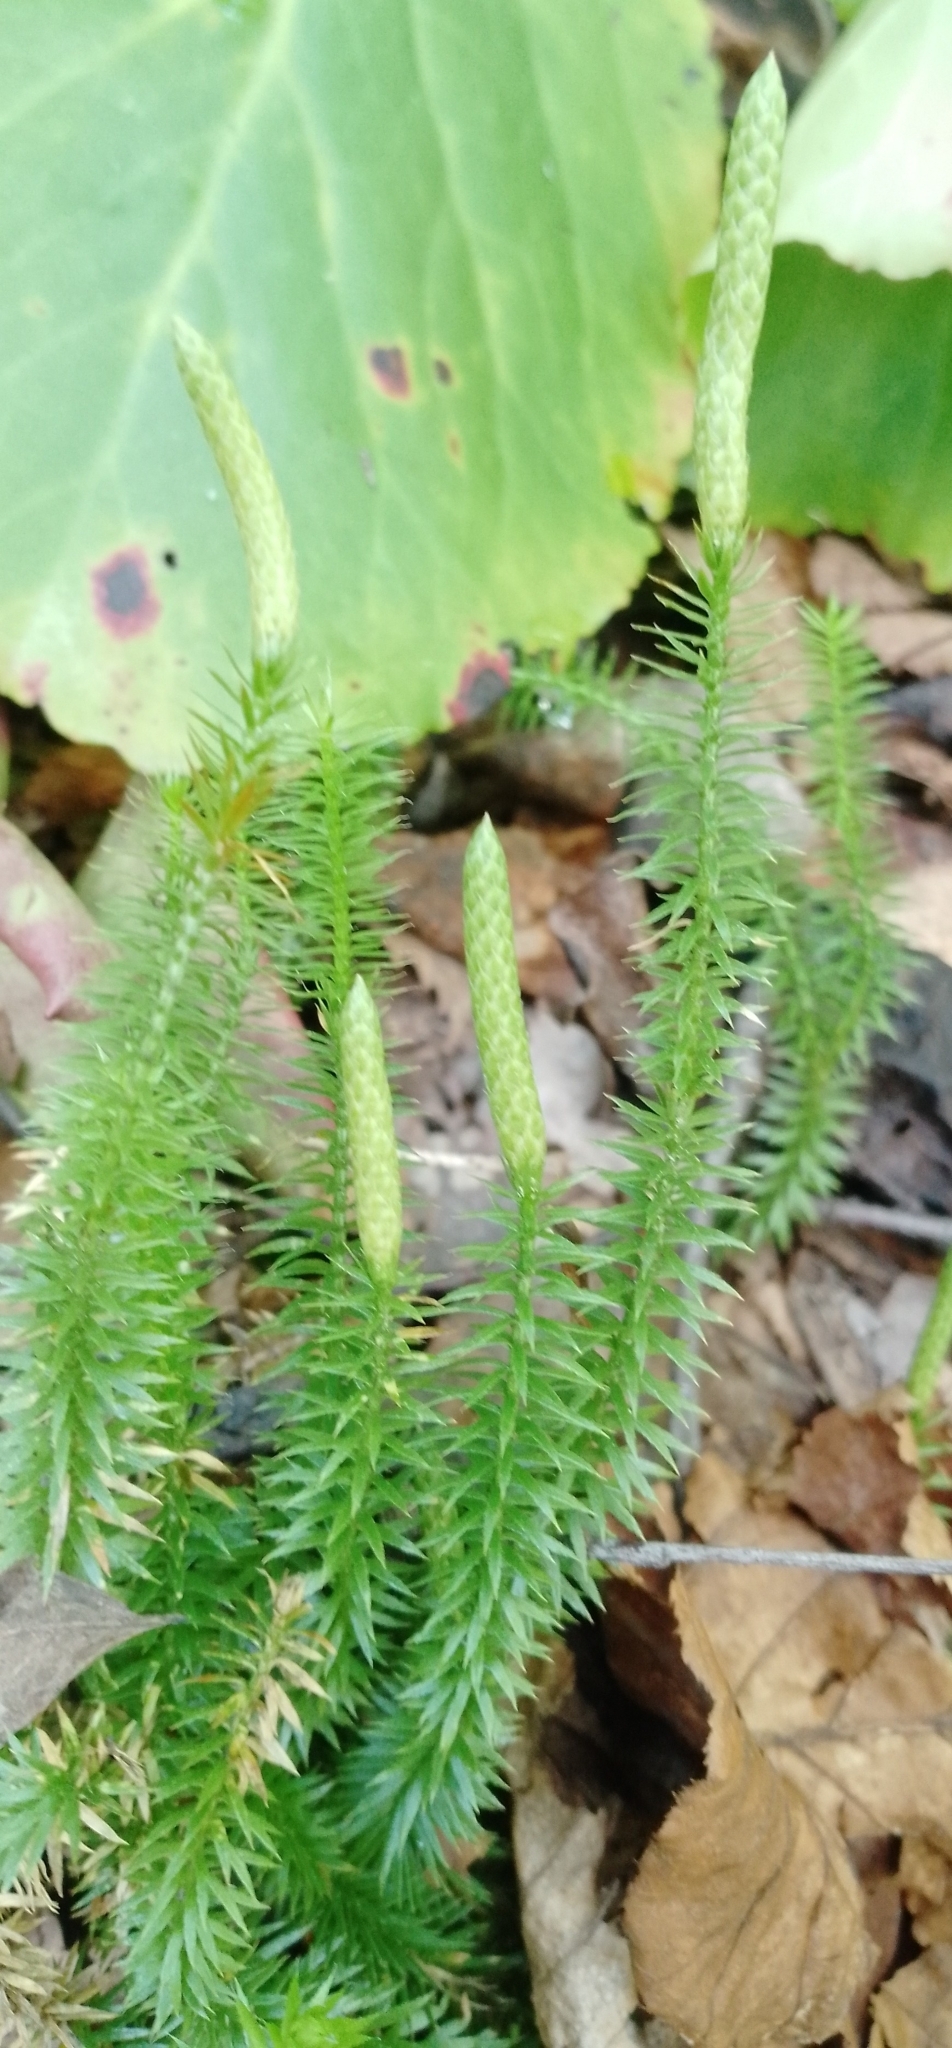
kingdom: Plantae
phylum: Tracheophyta
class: Lycopodiopsida
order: Lycopodiales
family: Lycopodiaceae
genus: Spinulum
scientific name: Spinulum annotinum
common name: Interrupted club-moss
